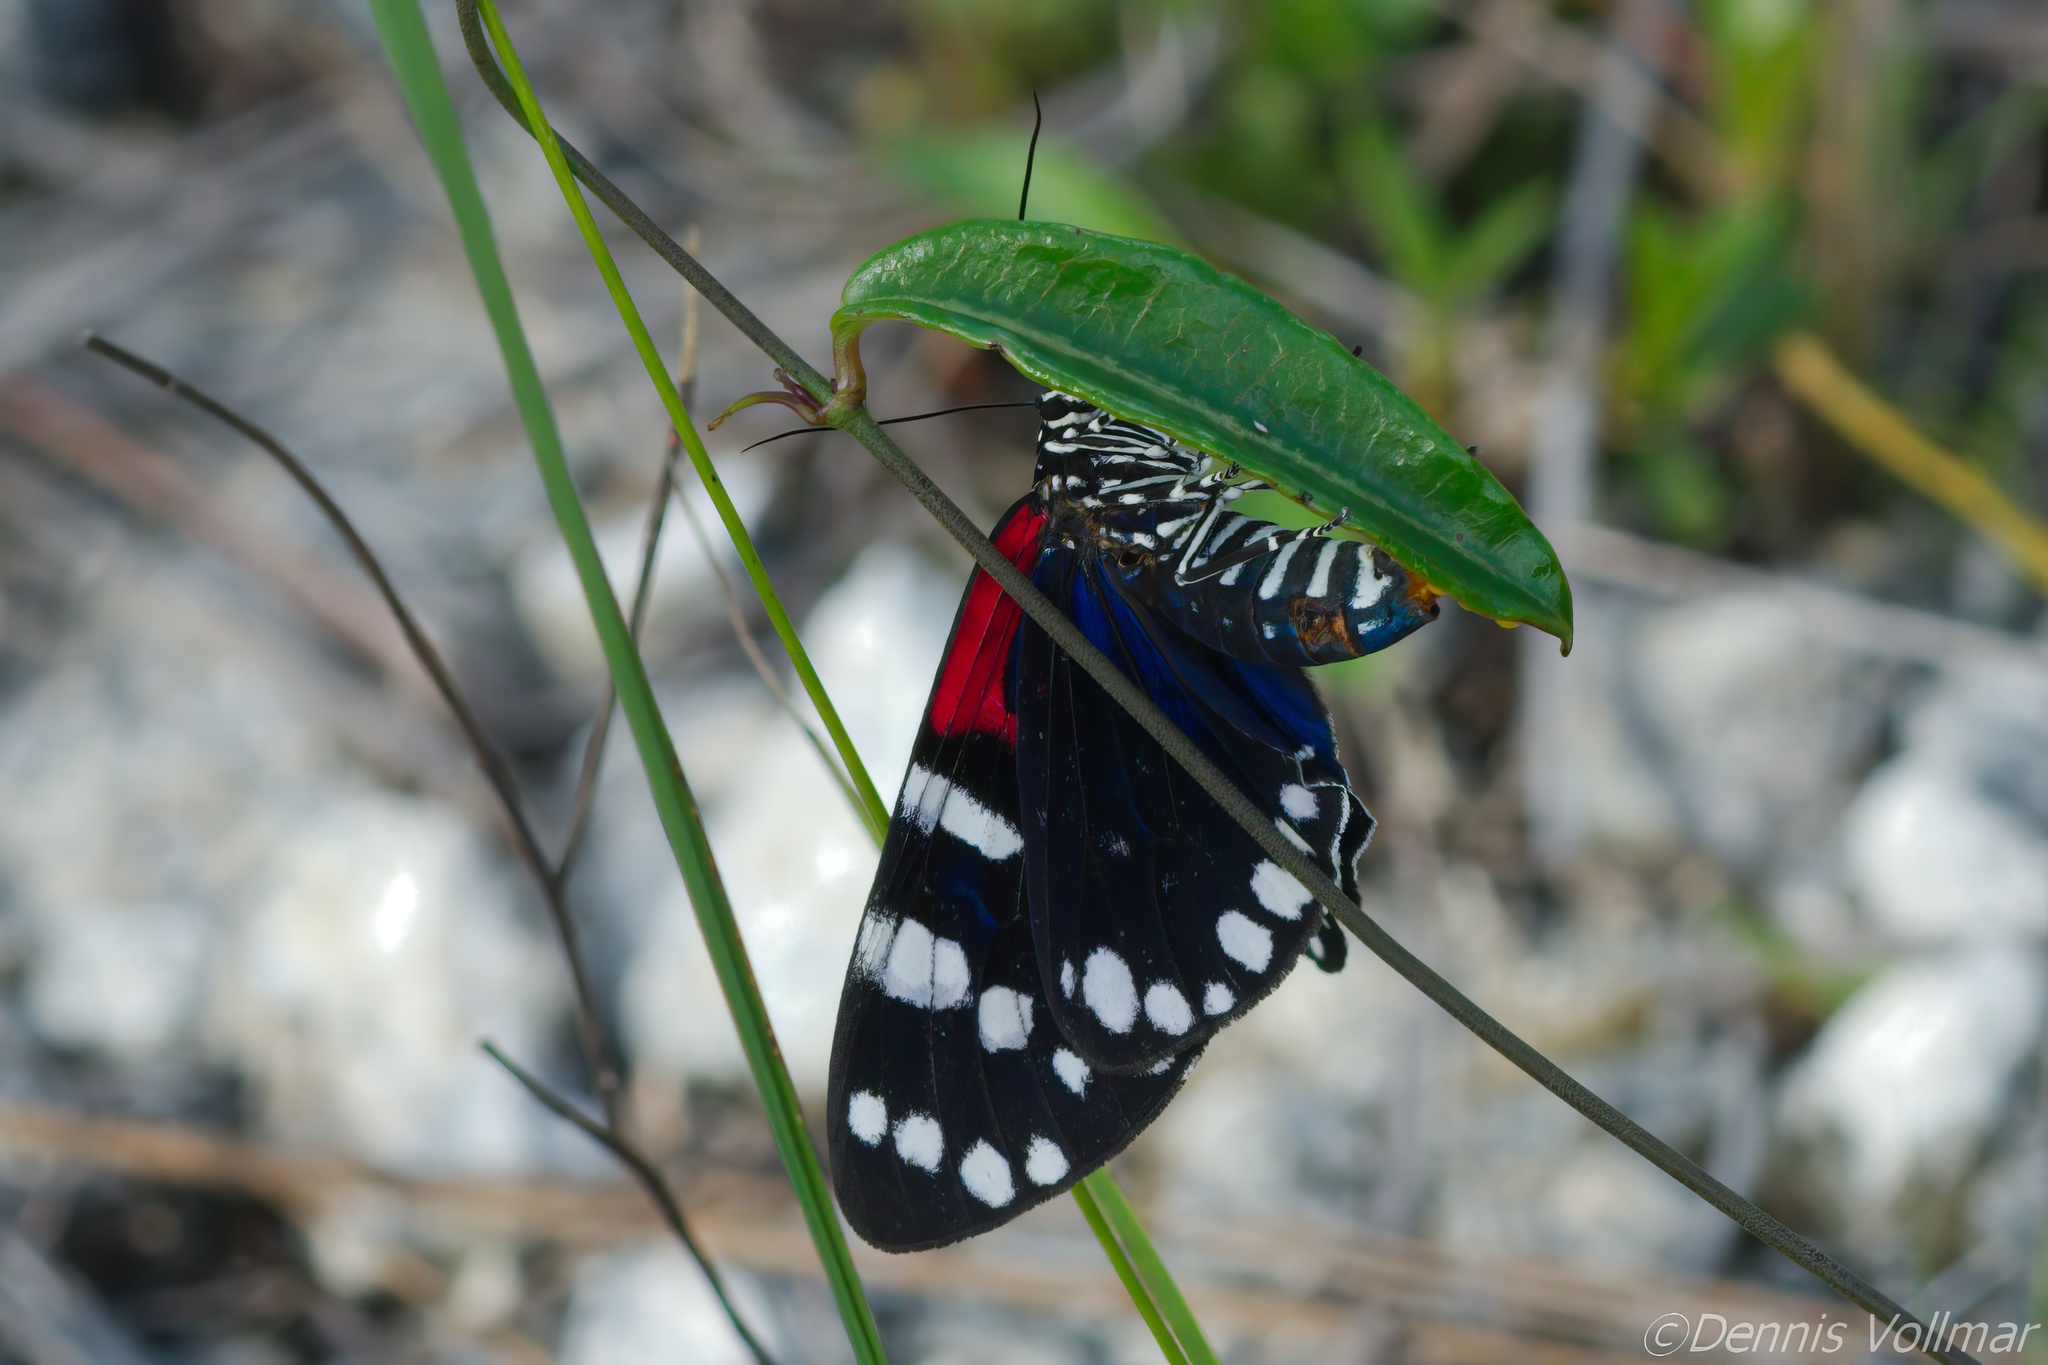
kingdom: Animalia
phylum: Arthropoda
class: Insecta
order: Lepidoptera
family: Erebidae
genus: Composia
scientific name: Composia fidelissima
